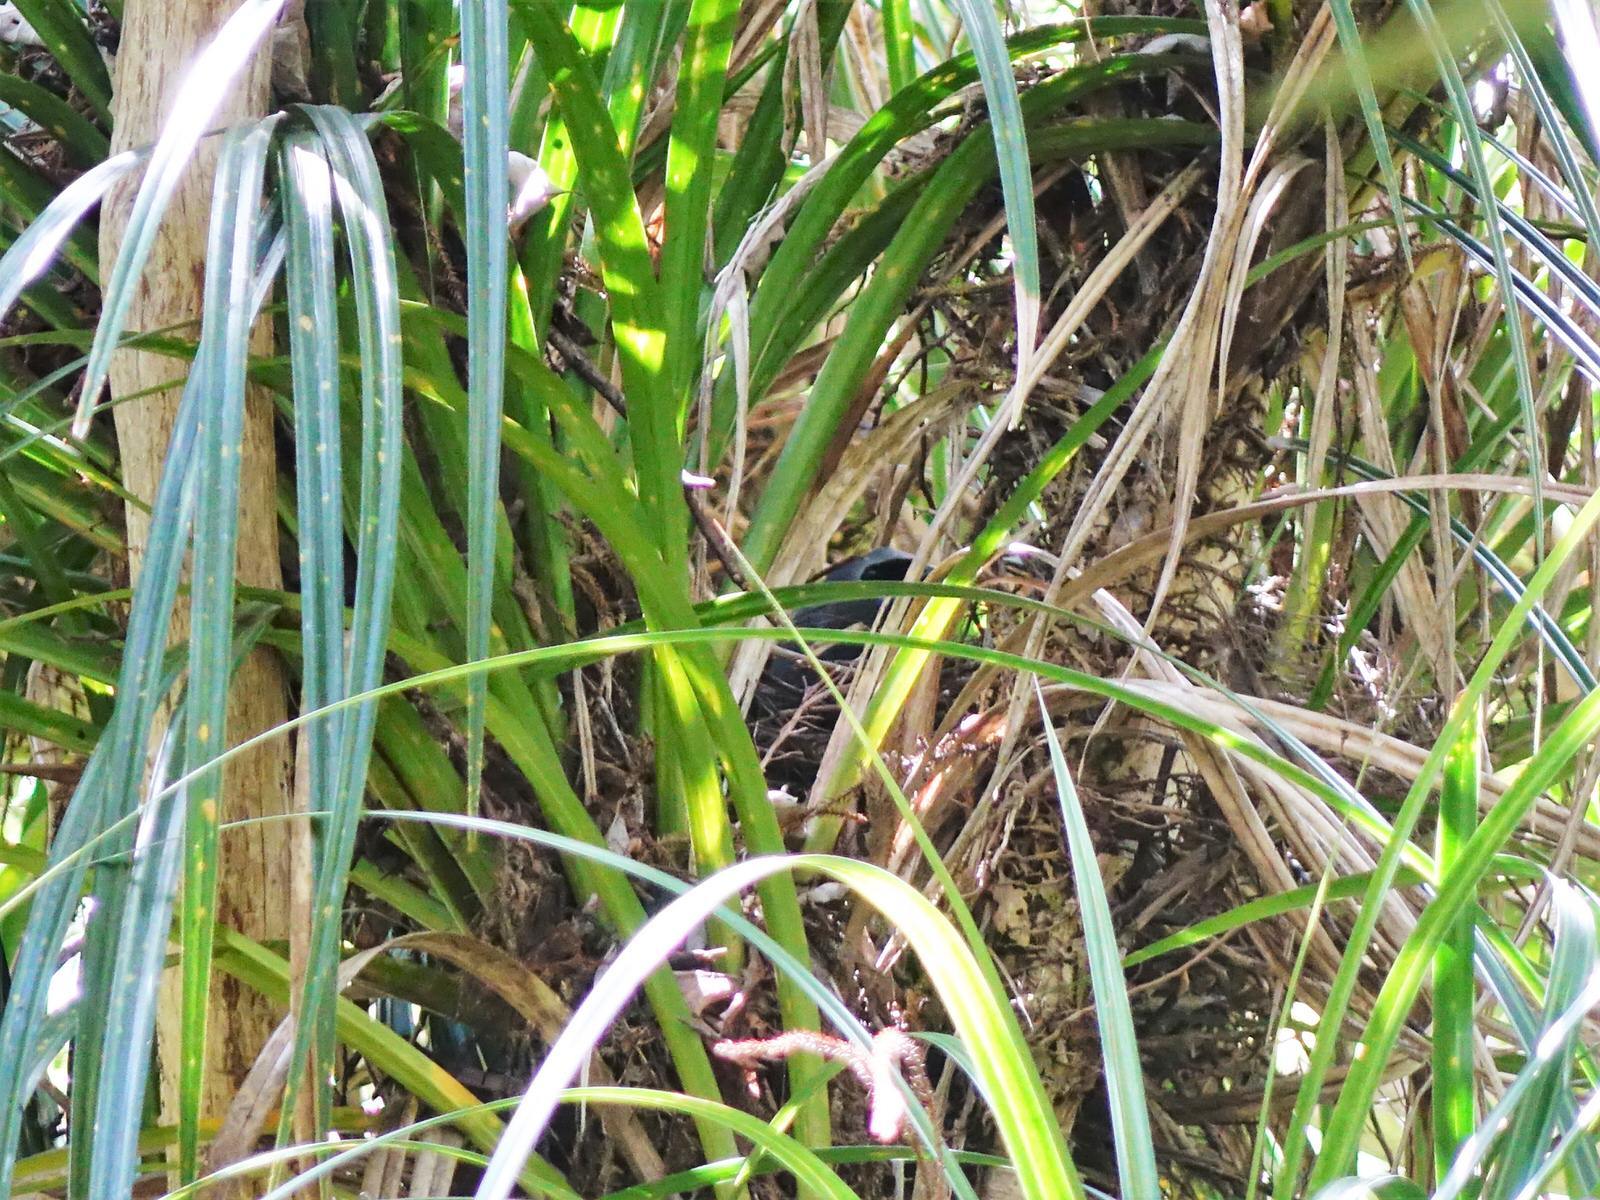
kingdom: Animalia
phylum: Chordata
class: Aves
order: Passeriformes
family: Callaeatidae
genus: Callaeas
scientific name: Callaeas cinereus
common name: South island kokako
